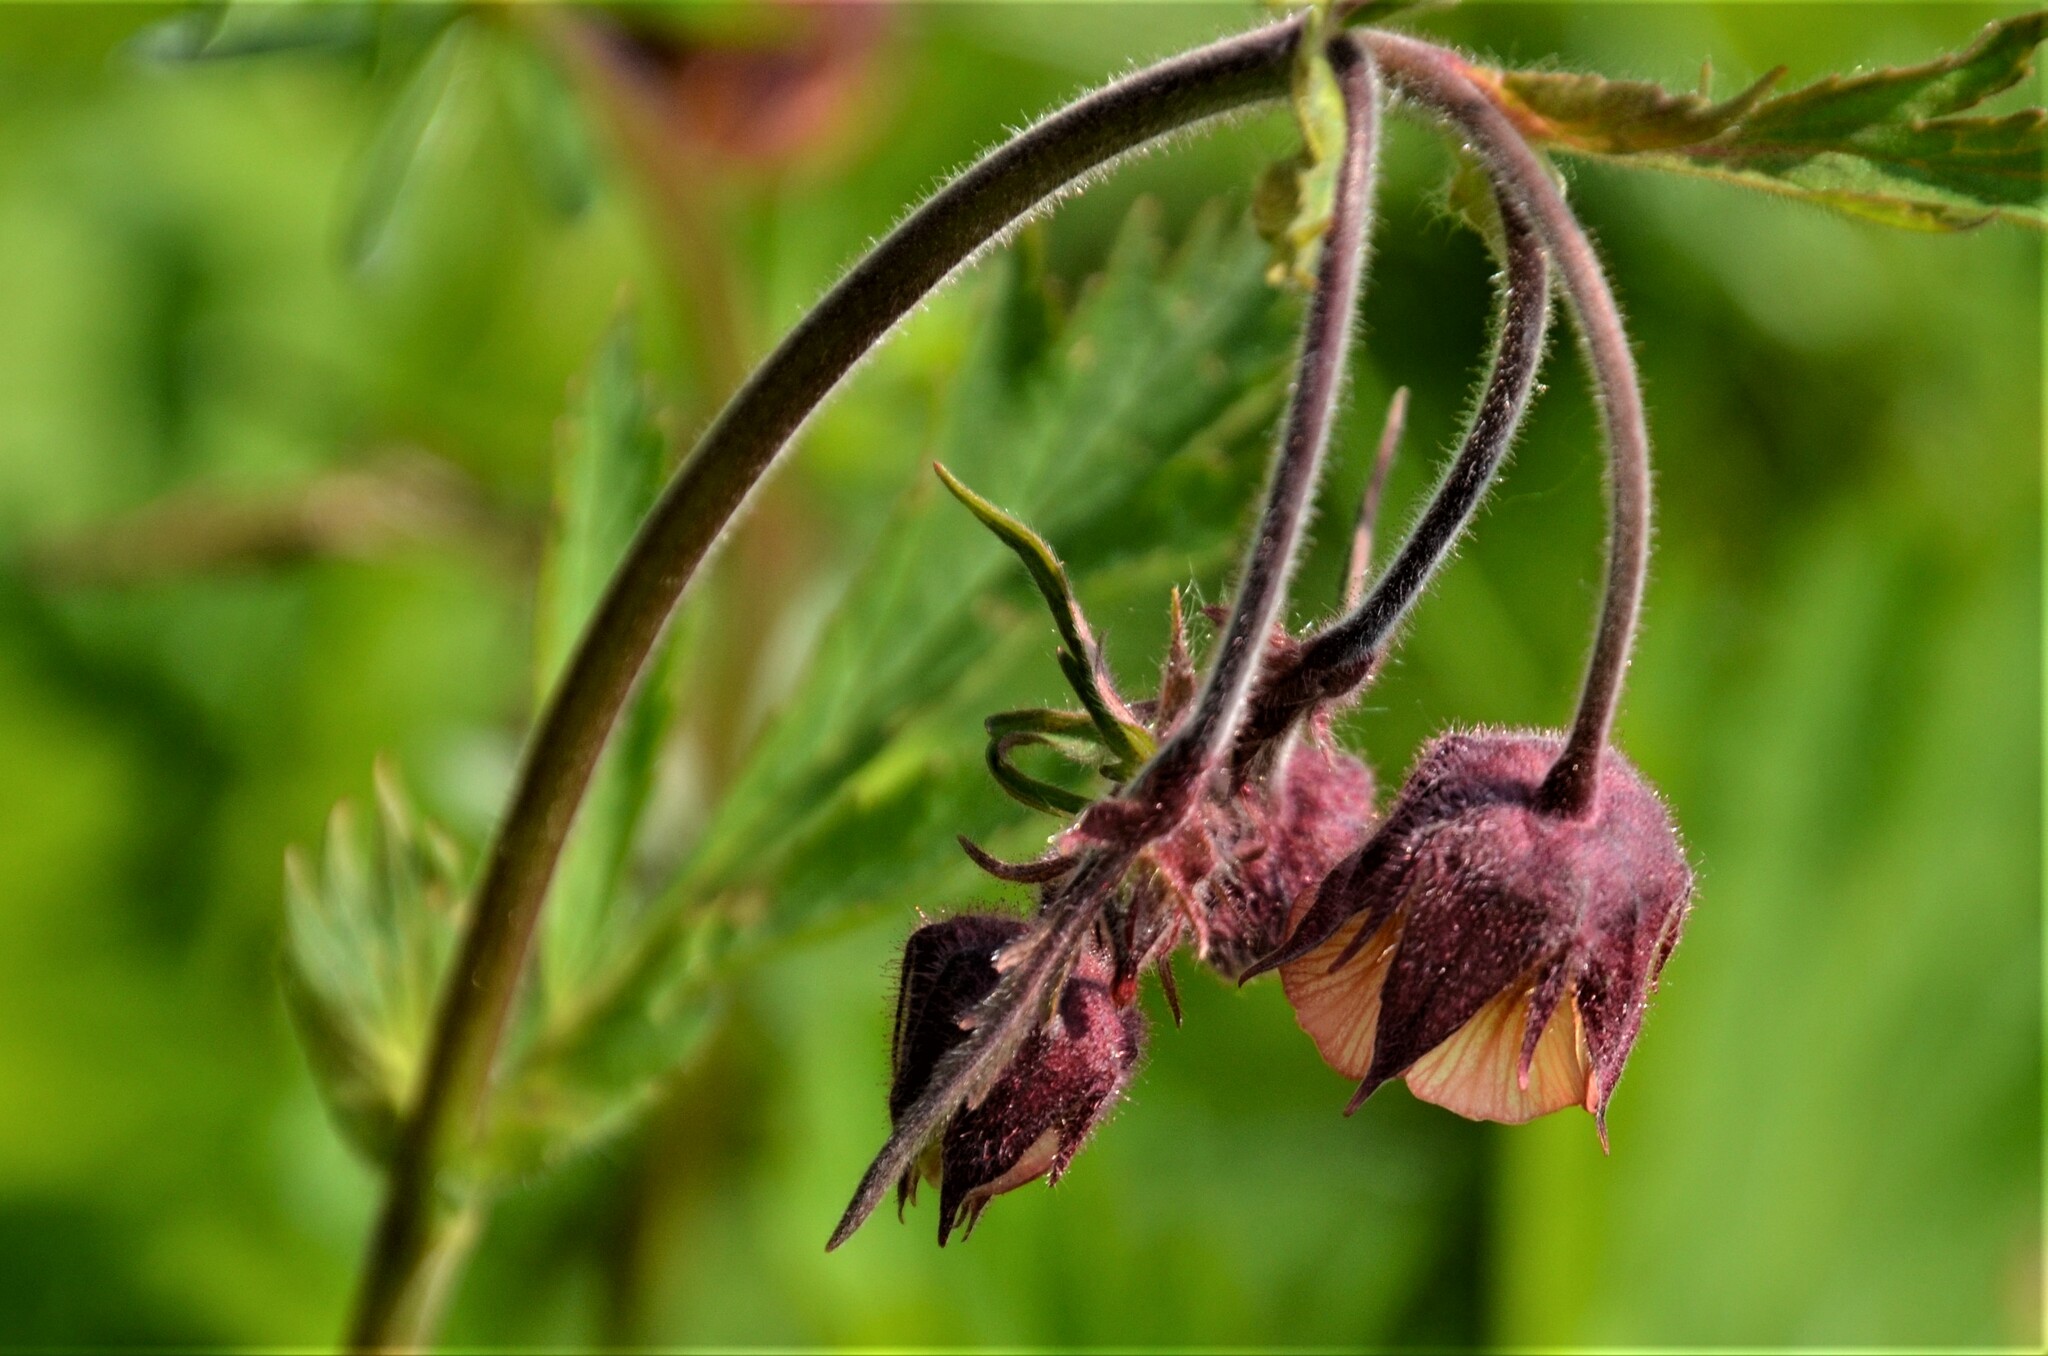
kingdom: Plantae
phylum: Tracheophyta
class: Magnoliopsida
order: Rosales
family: Rosaceae
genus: Geum
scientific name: Geum rivale
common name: Water avens
